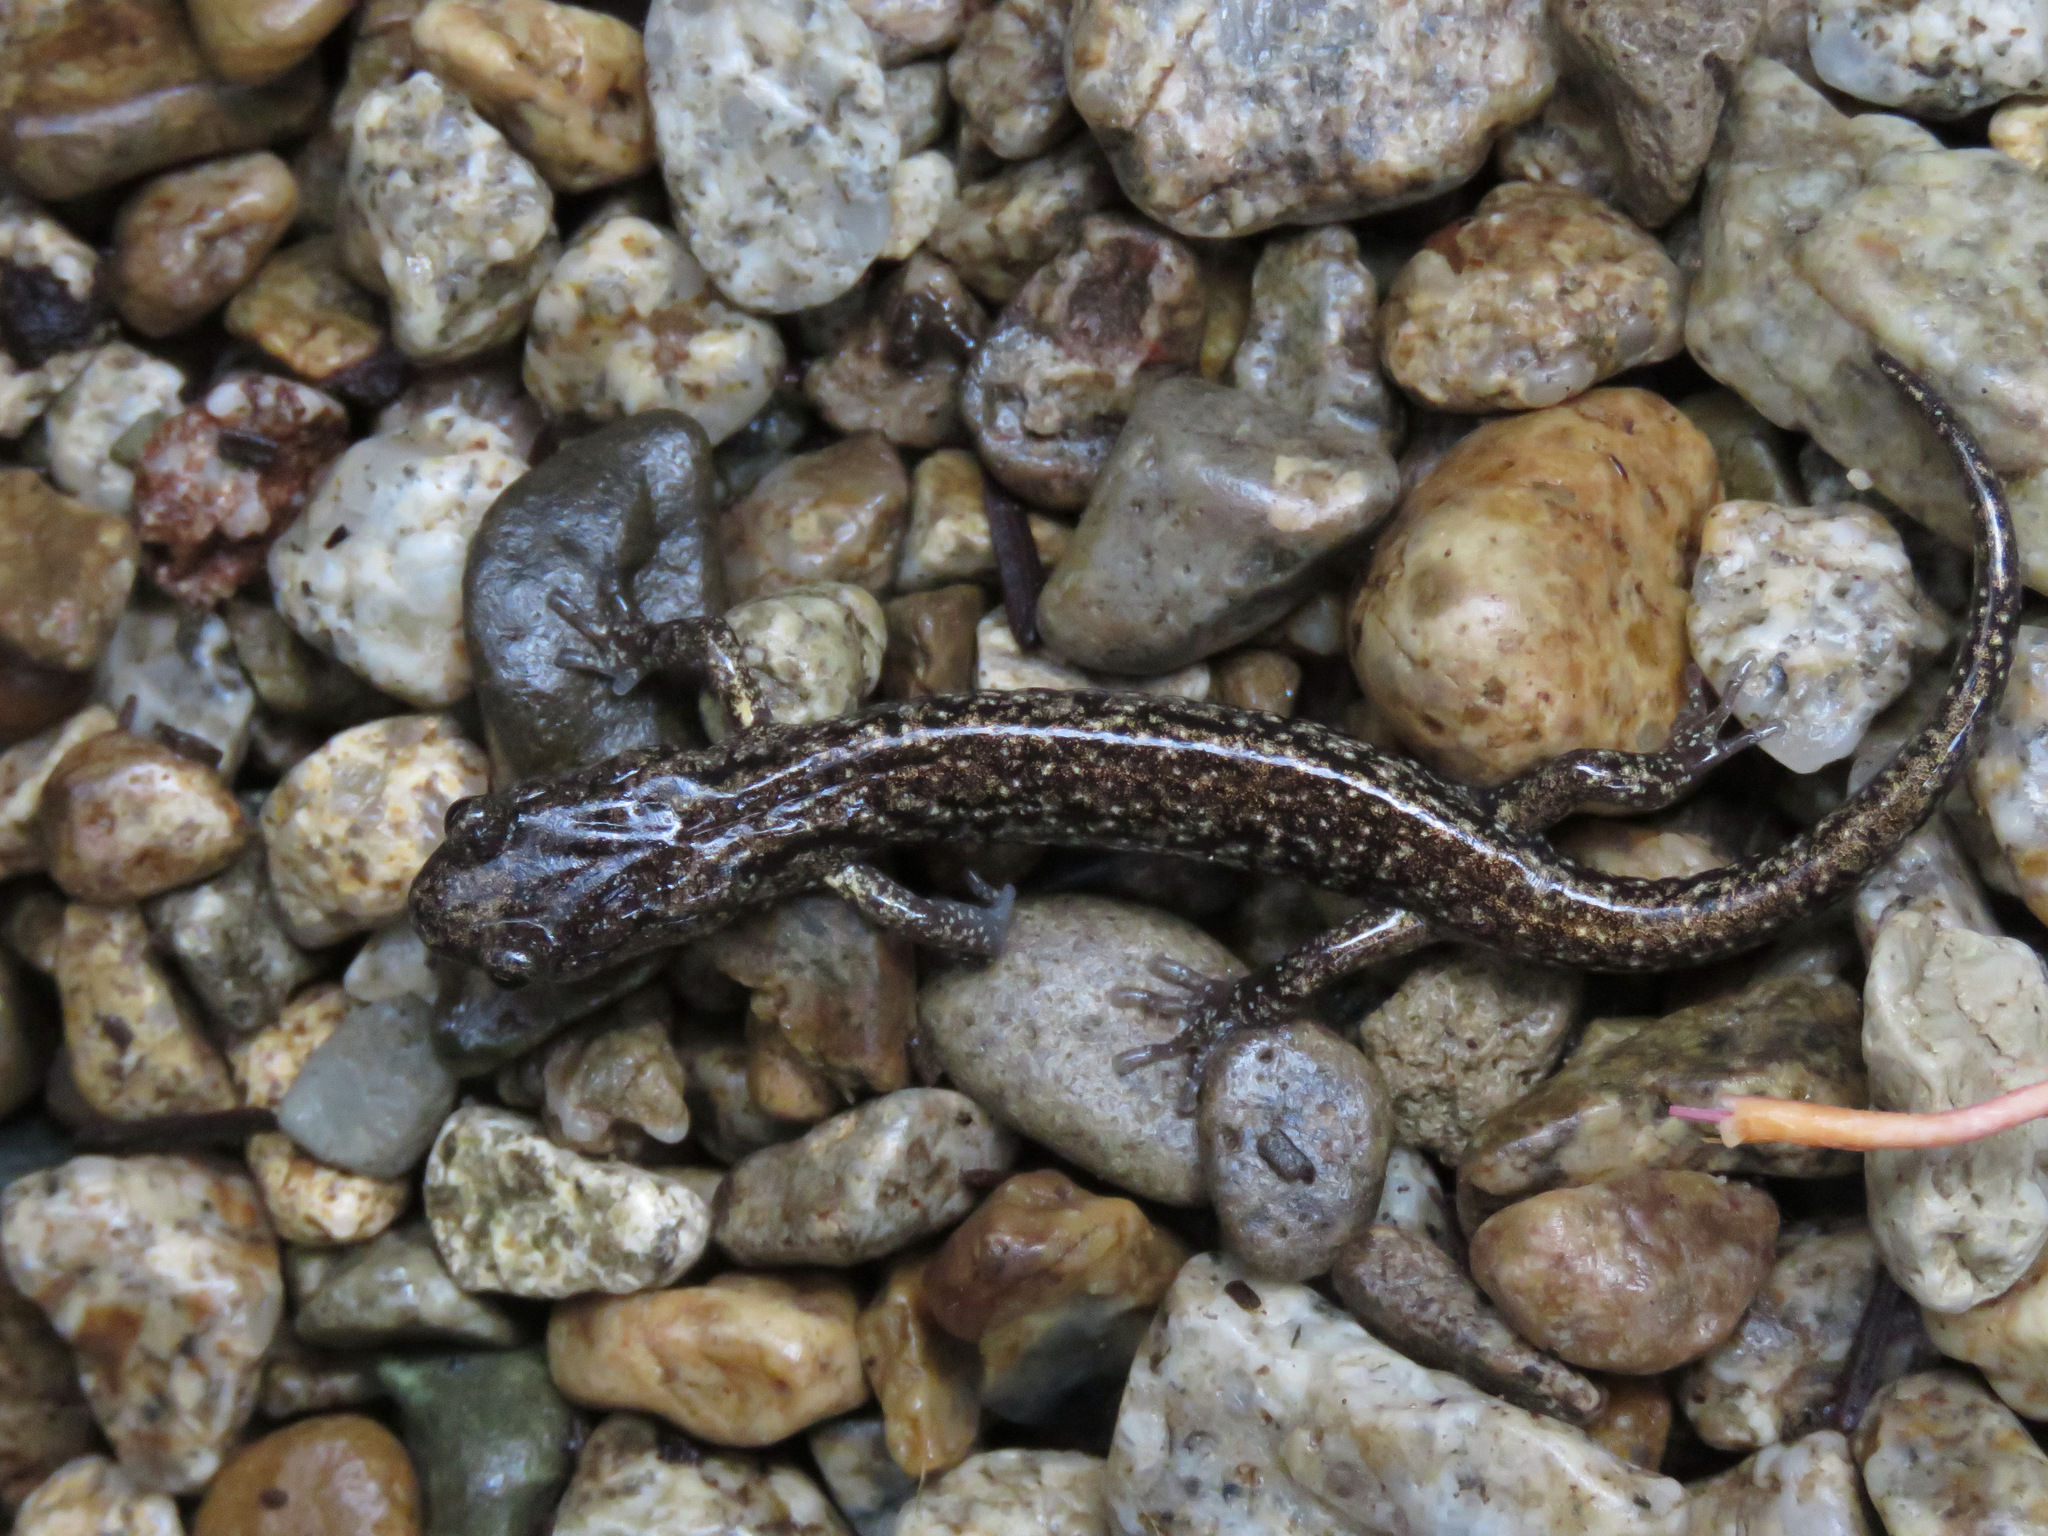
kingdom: Animalia
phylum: Chordata
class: Amphibia
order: Caudata
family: Plethodontidae
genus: Aneides
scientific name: Aneides vagrans
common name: Wandering salamander
